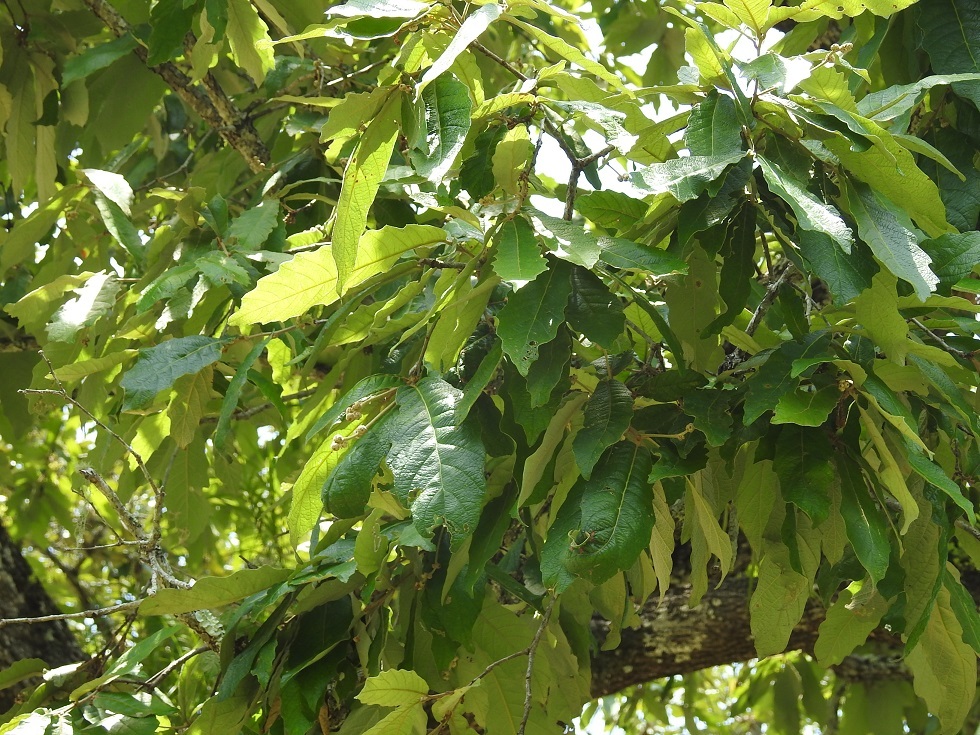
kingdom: Plantae
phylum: Tracheophyta
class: Magnoliopsida
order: Fagales
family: Fagaceae
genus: Quercus
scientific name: Quercus vicentensis
